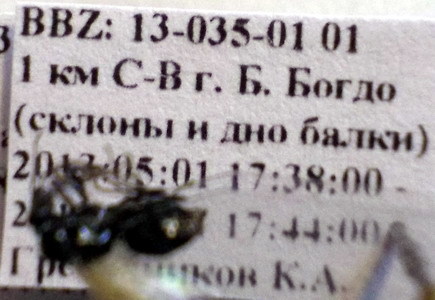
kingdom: Animalia
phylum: Arthropoda
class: Insecta
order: Hymenoptera
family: Formicidae
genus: Camponotus
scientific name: Camponotus piceus
